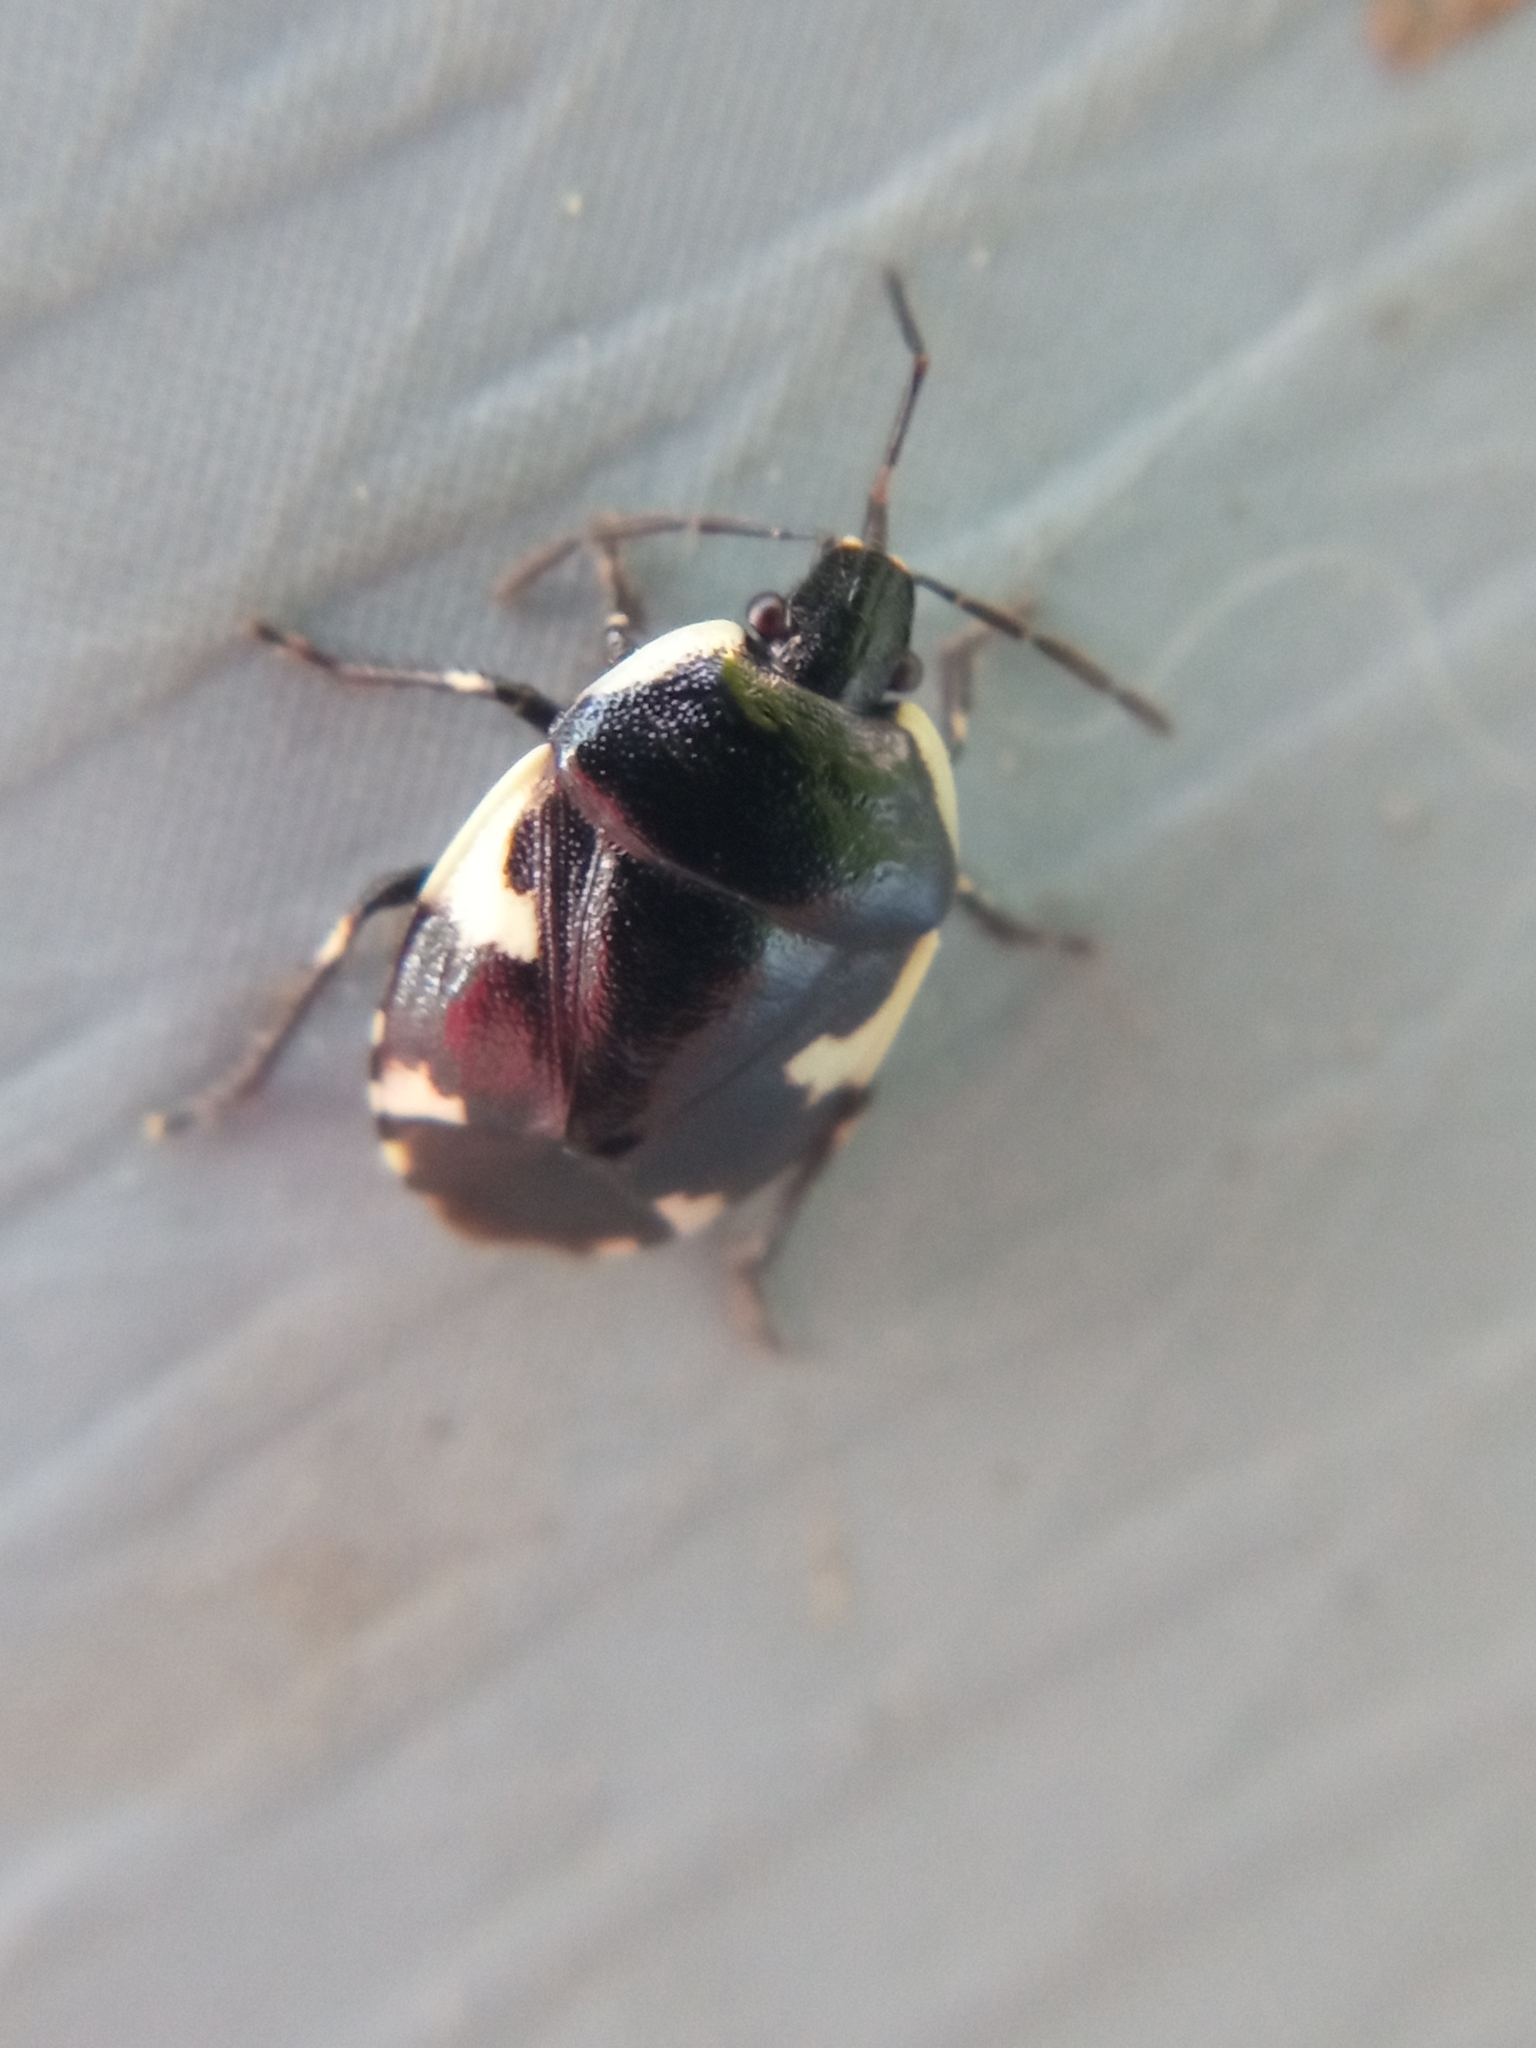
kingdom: Animalia
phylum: Arthropoda
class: Insecta
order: Hemiptera
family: Cydnidae
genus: Tritomegas
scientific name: Tritomegas sexmaculatus
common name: Rambur's pied shieldbug
